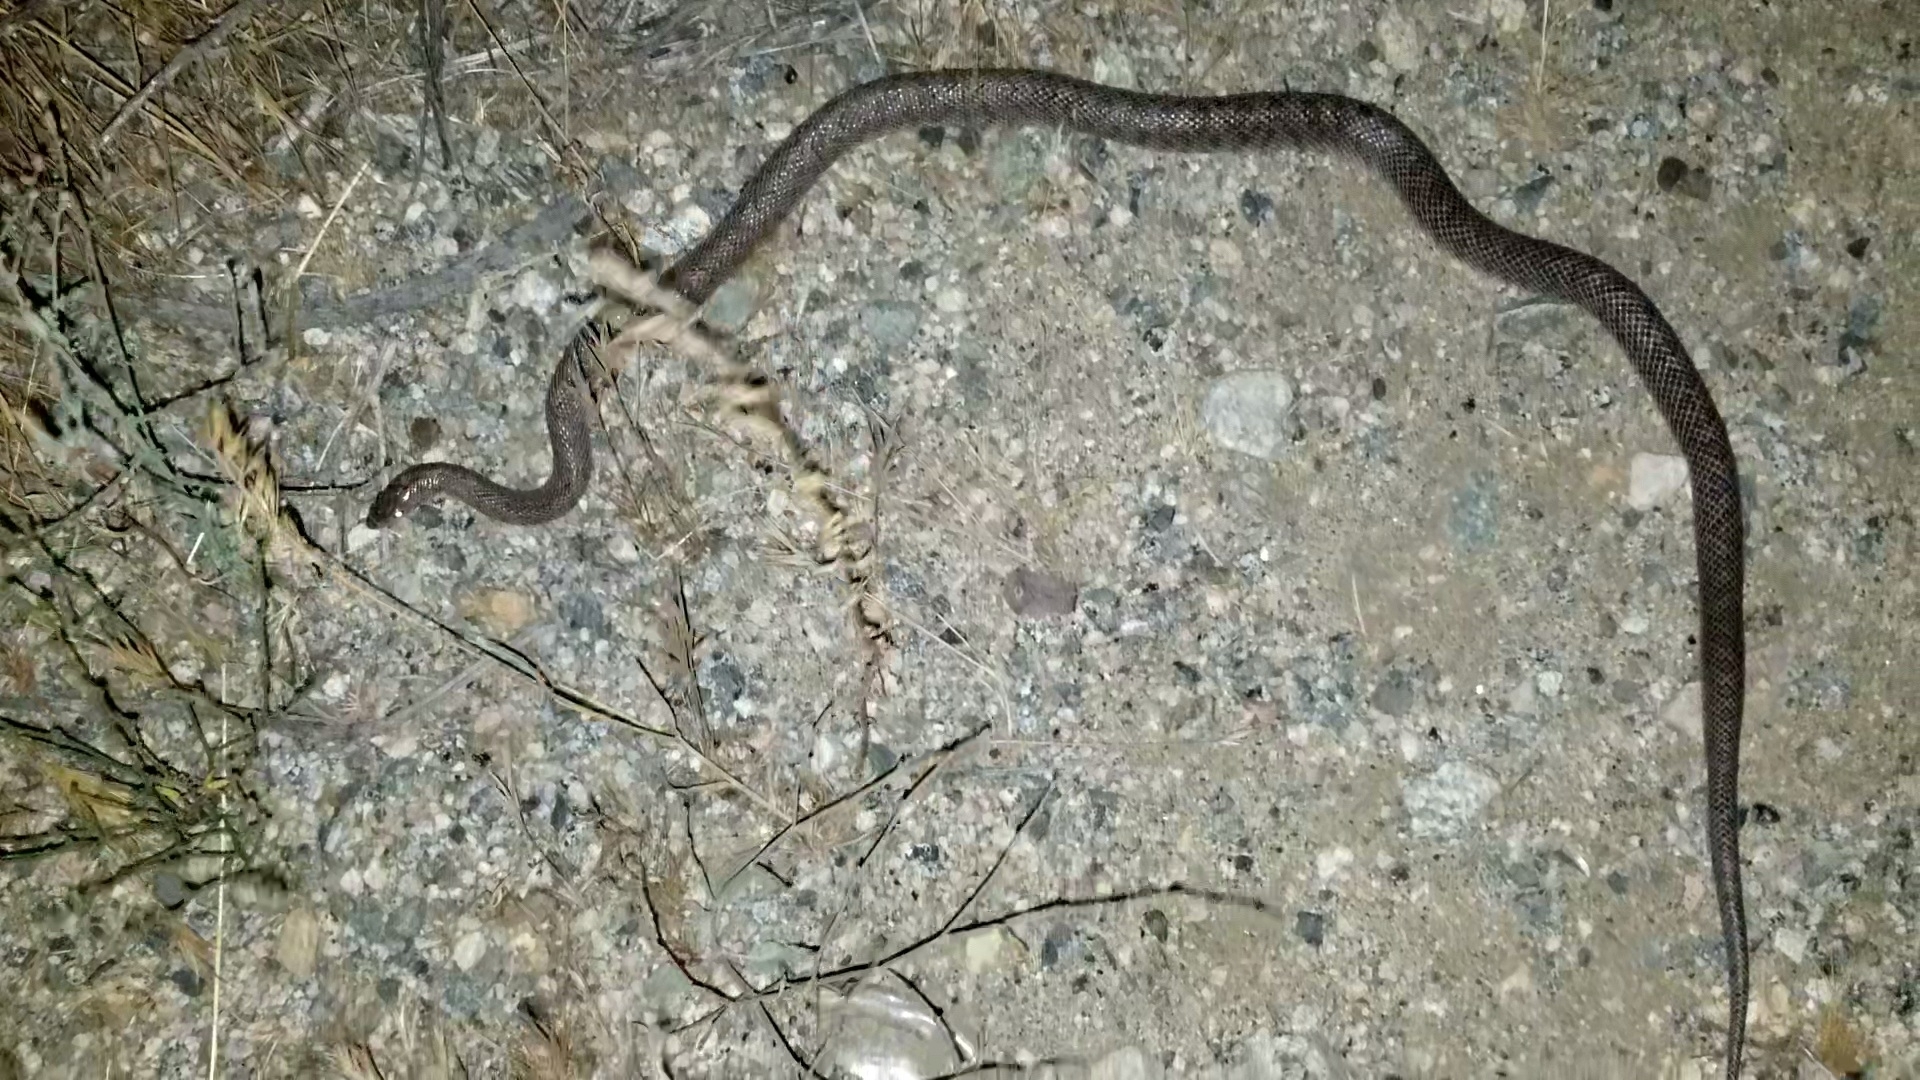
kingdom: Animalia
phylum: Chordata
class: Squamata
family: Colubridae
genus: Arizona
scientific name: Arizona elegans
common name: Glossy snake
